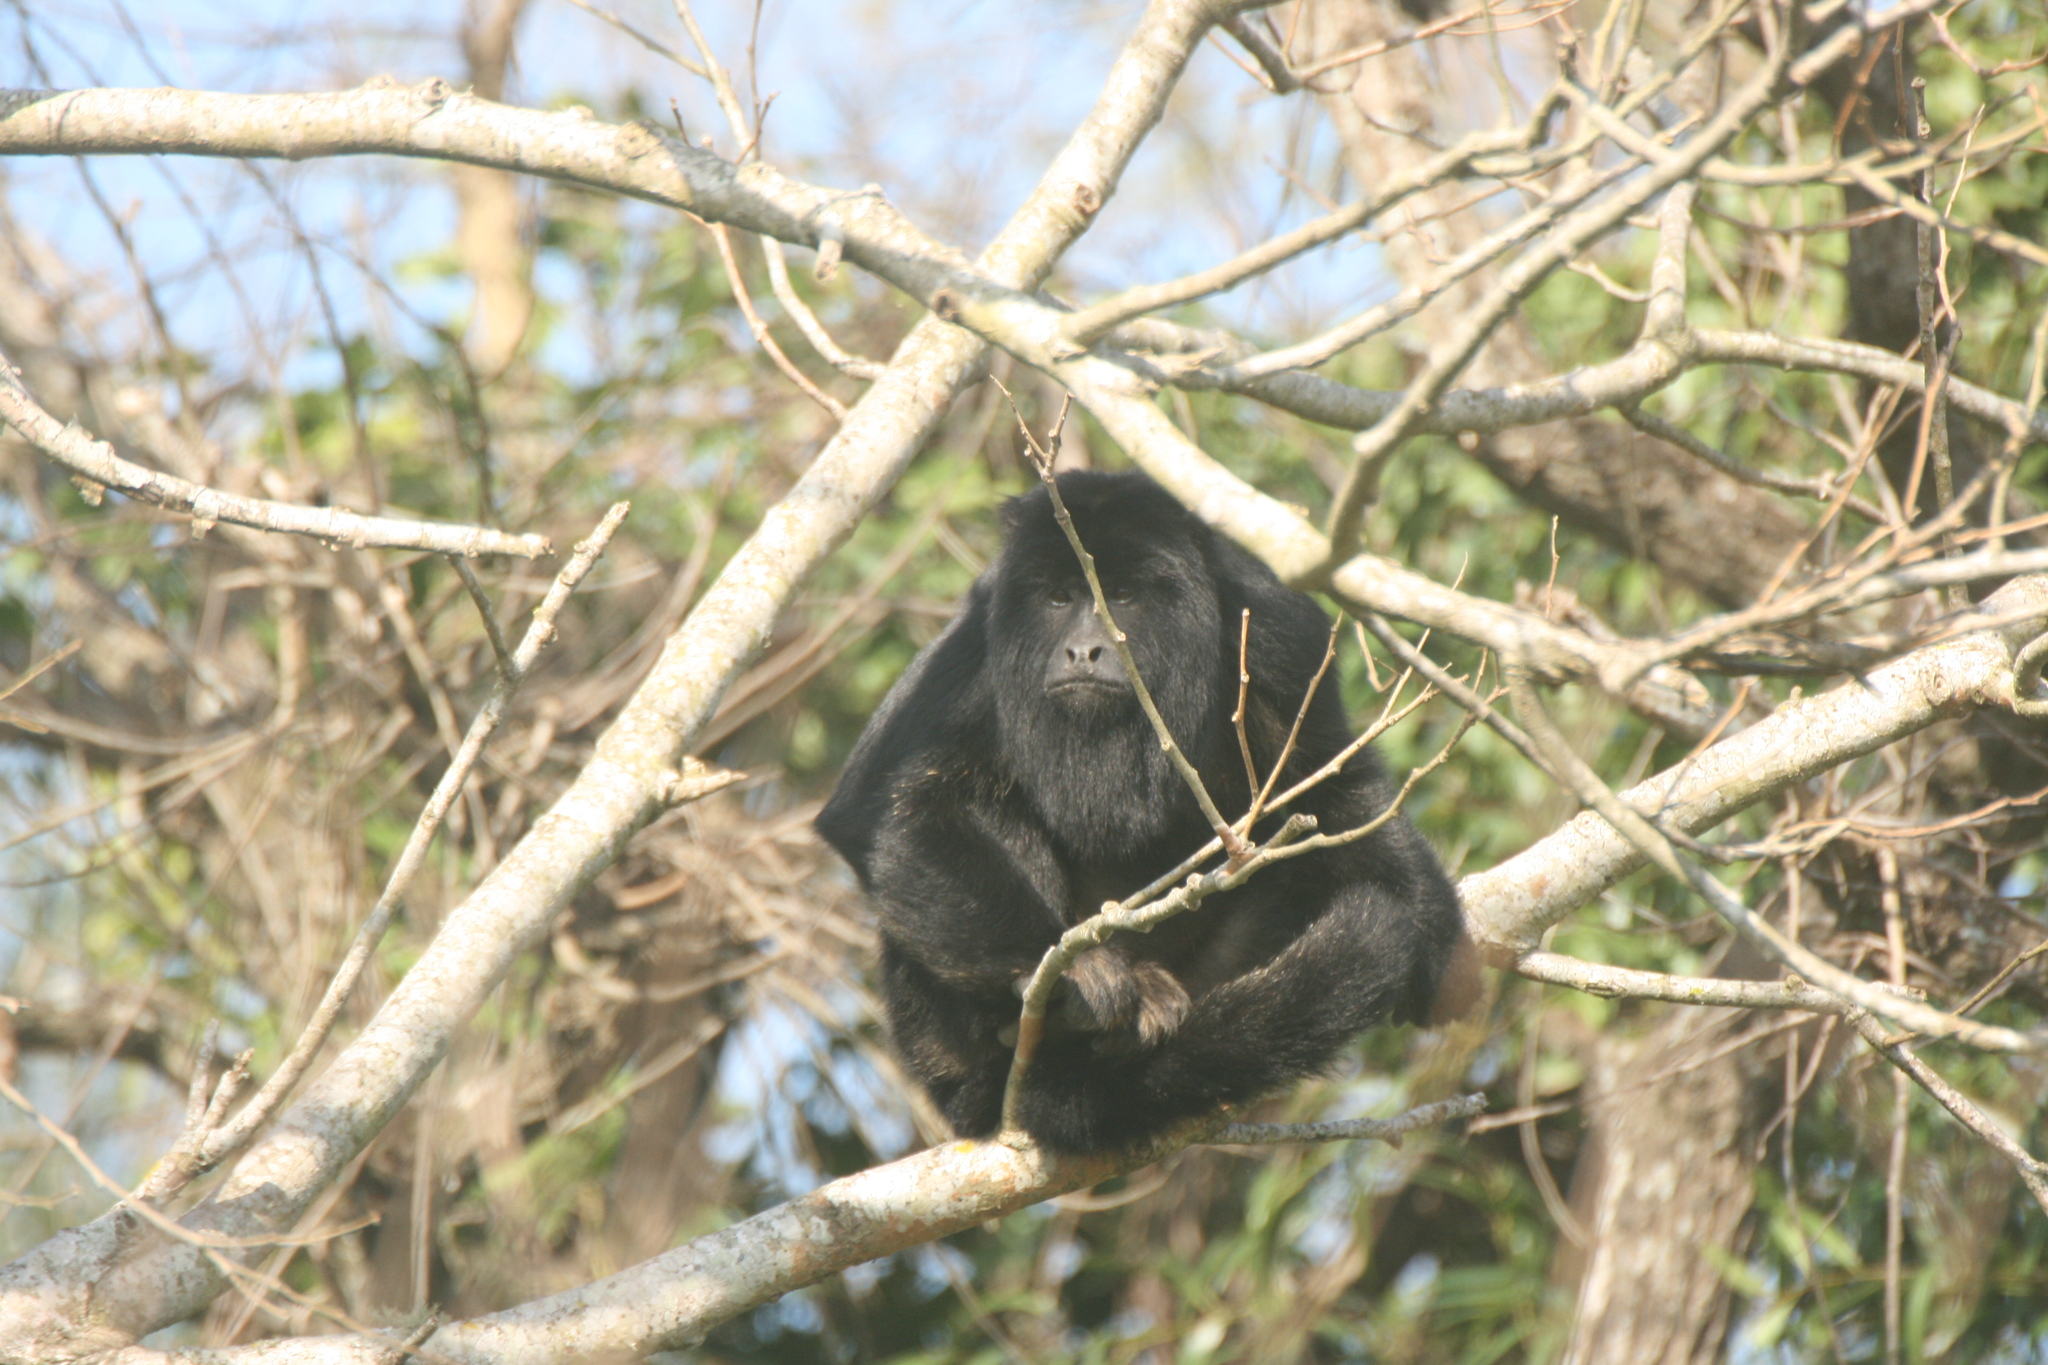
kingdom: Animalia
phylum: Chordata
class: Mammalia
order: Primates
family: Atelidae
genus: Alouatta
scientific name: Alouatta caraya
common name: Black howler
